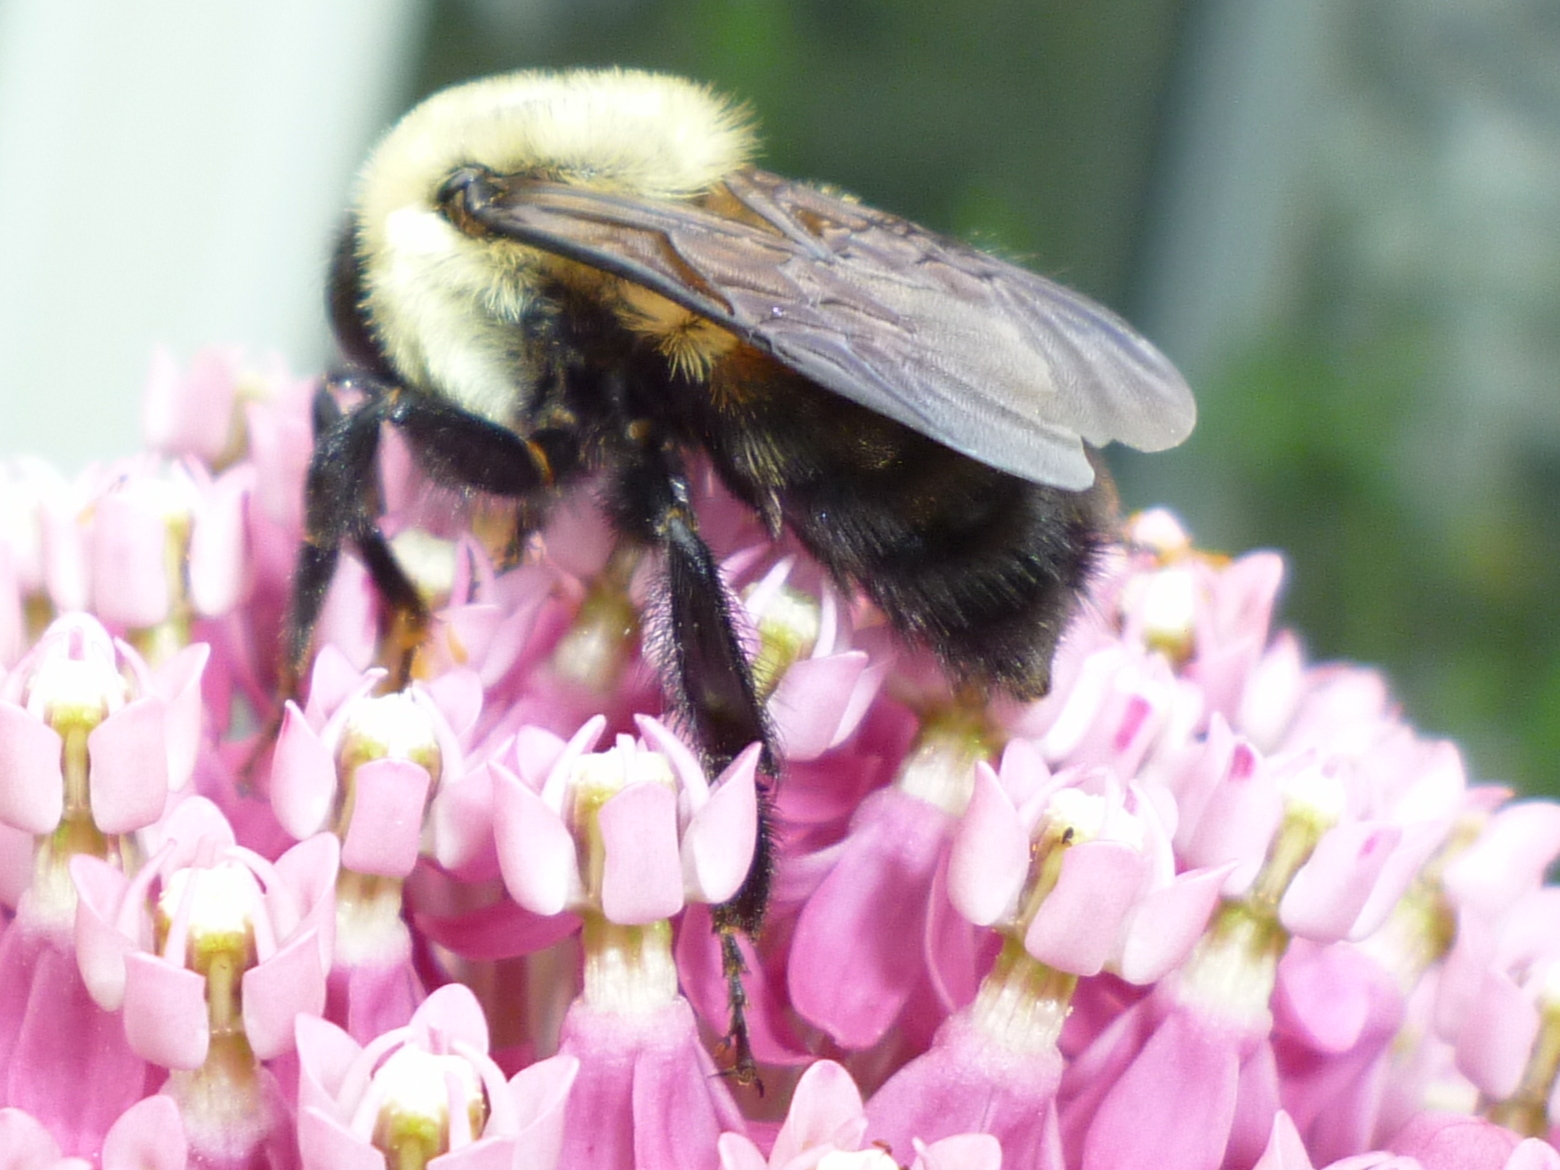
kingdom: Animalia
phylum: Arthropoda
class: Insecta
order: Hymenoptera
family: Apidae
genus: Bombus
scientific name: Bombus griseocollis
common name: Brown-belted bumble bee
